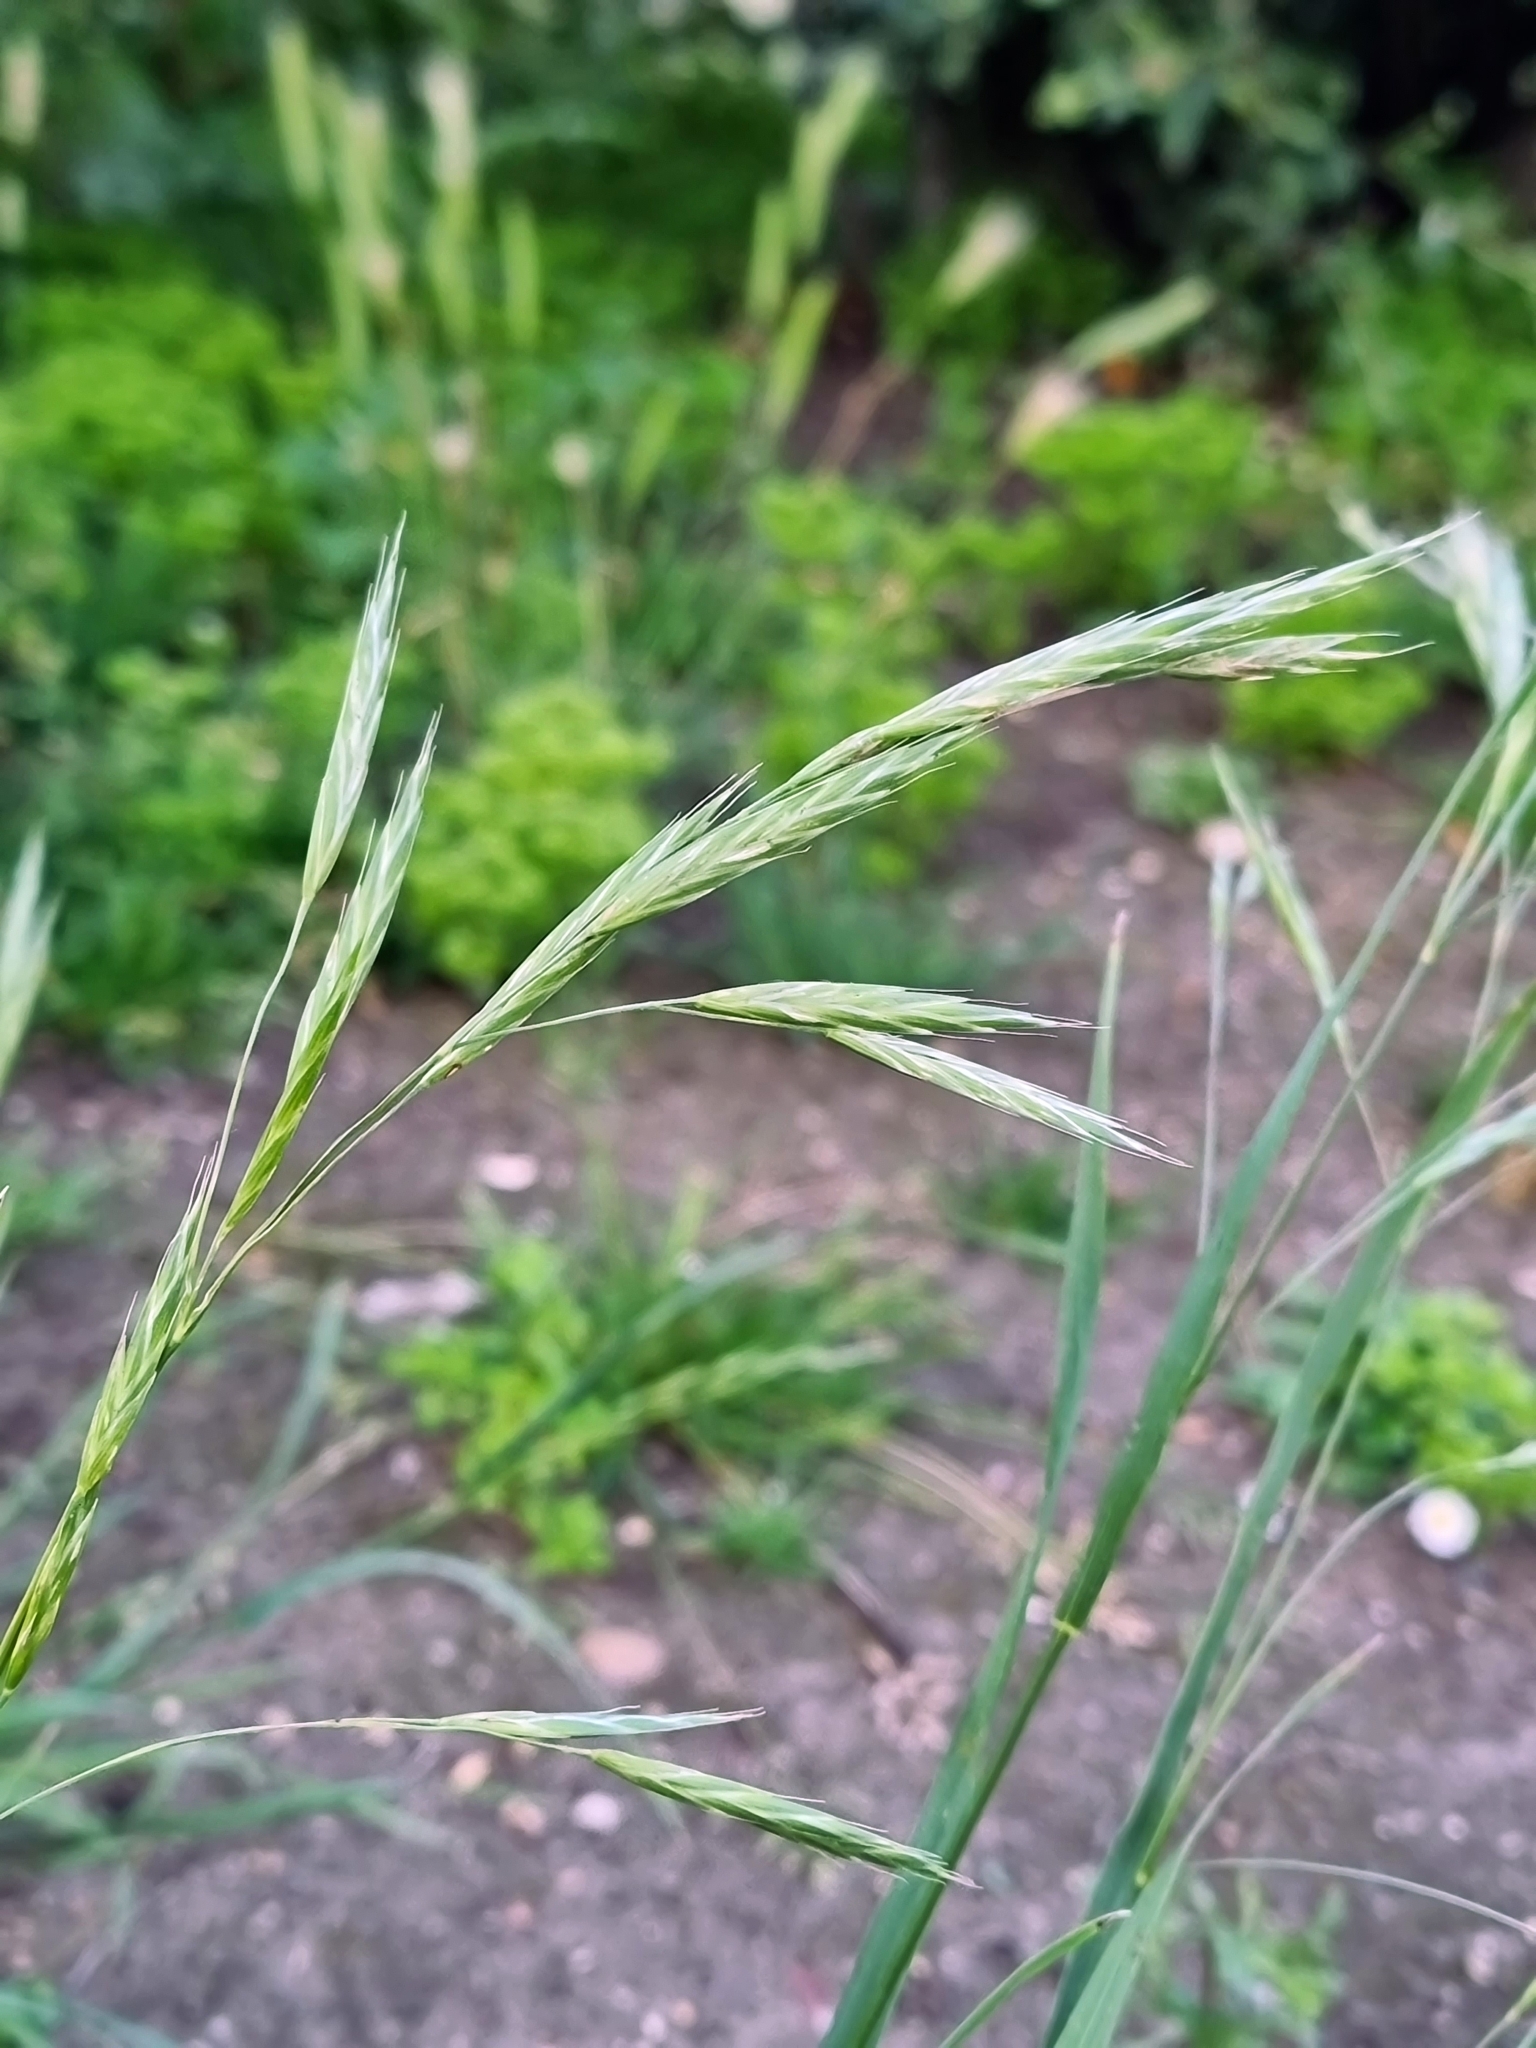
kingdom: Plantae
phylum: Tracheophyta
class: Liliopsida
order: Poales
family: Poaceae
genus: Bromus
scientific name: Bromus carinatus
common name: Mountain brome
